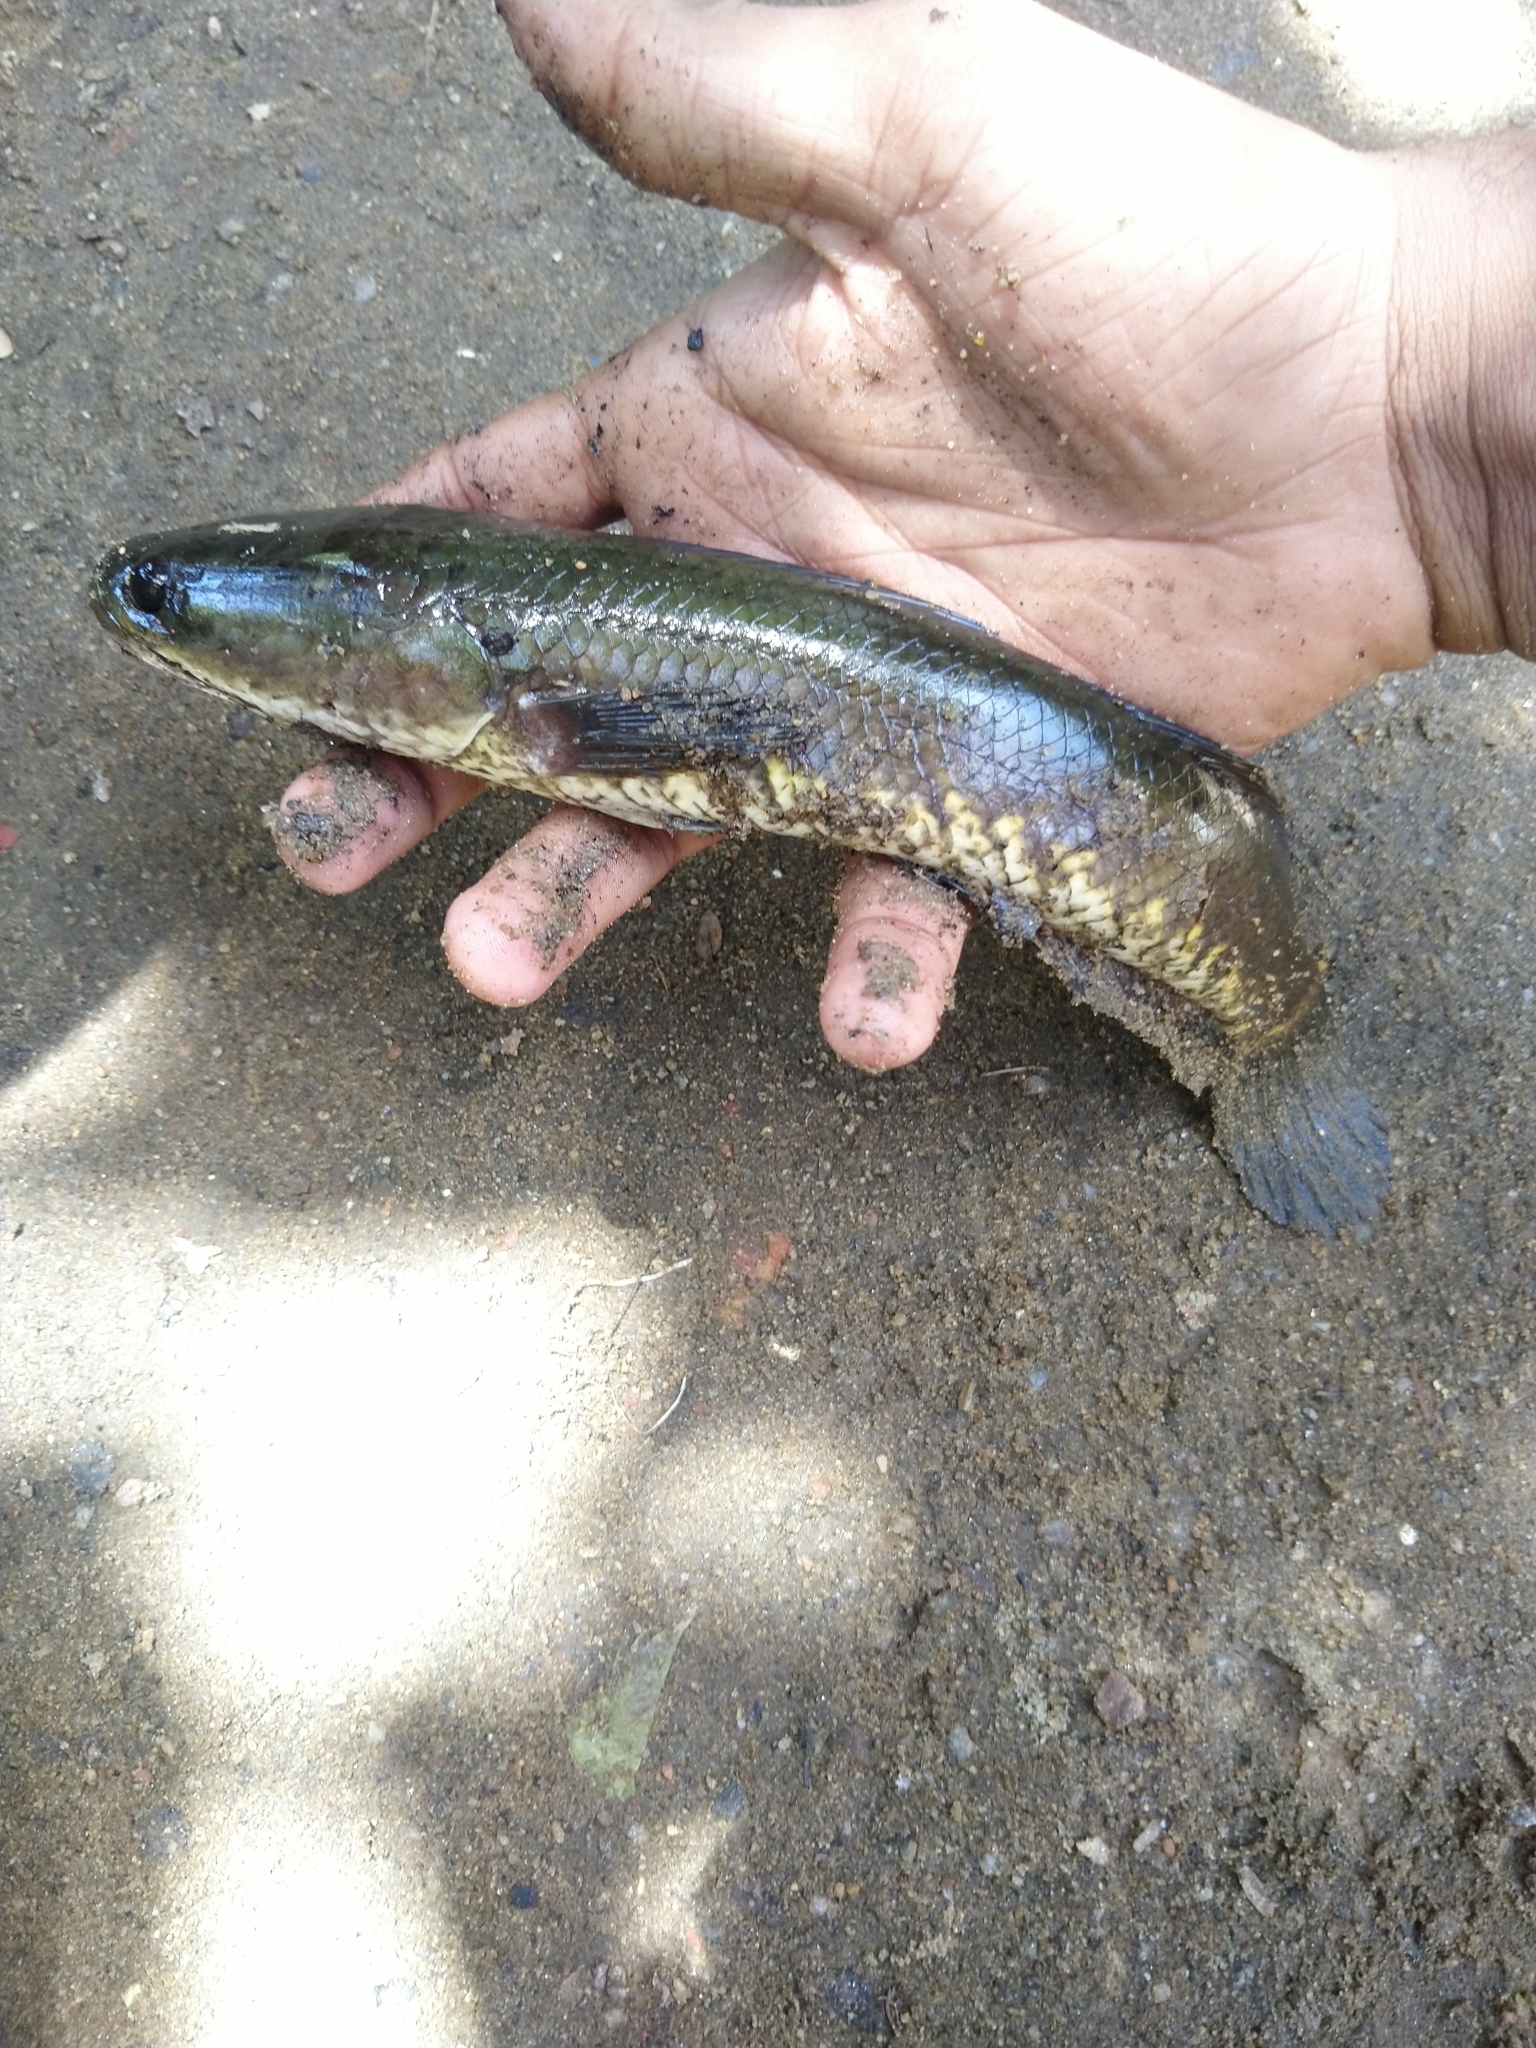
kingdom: Animalia
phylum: Chordata
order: Perciformes
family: Channidae
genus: Channa
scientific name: Channa striata
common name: Striped snakehead
